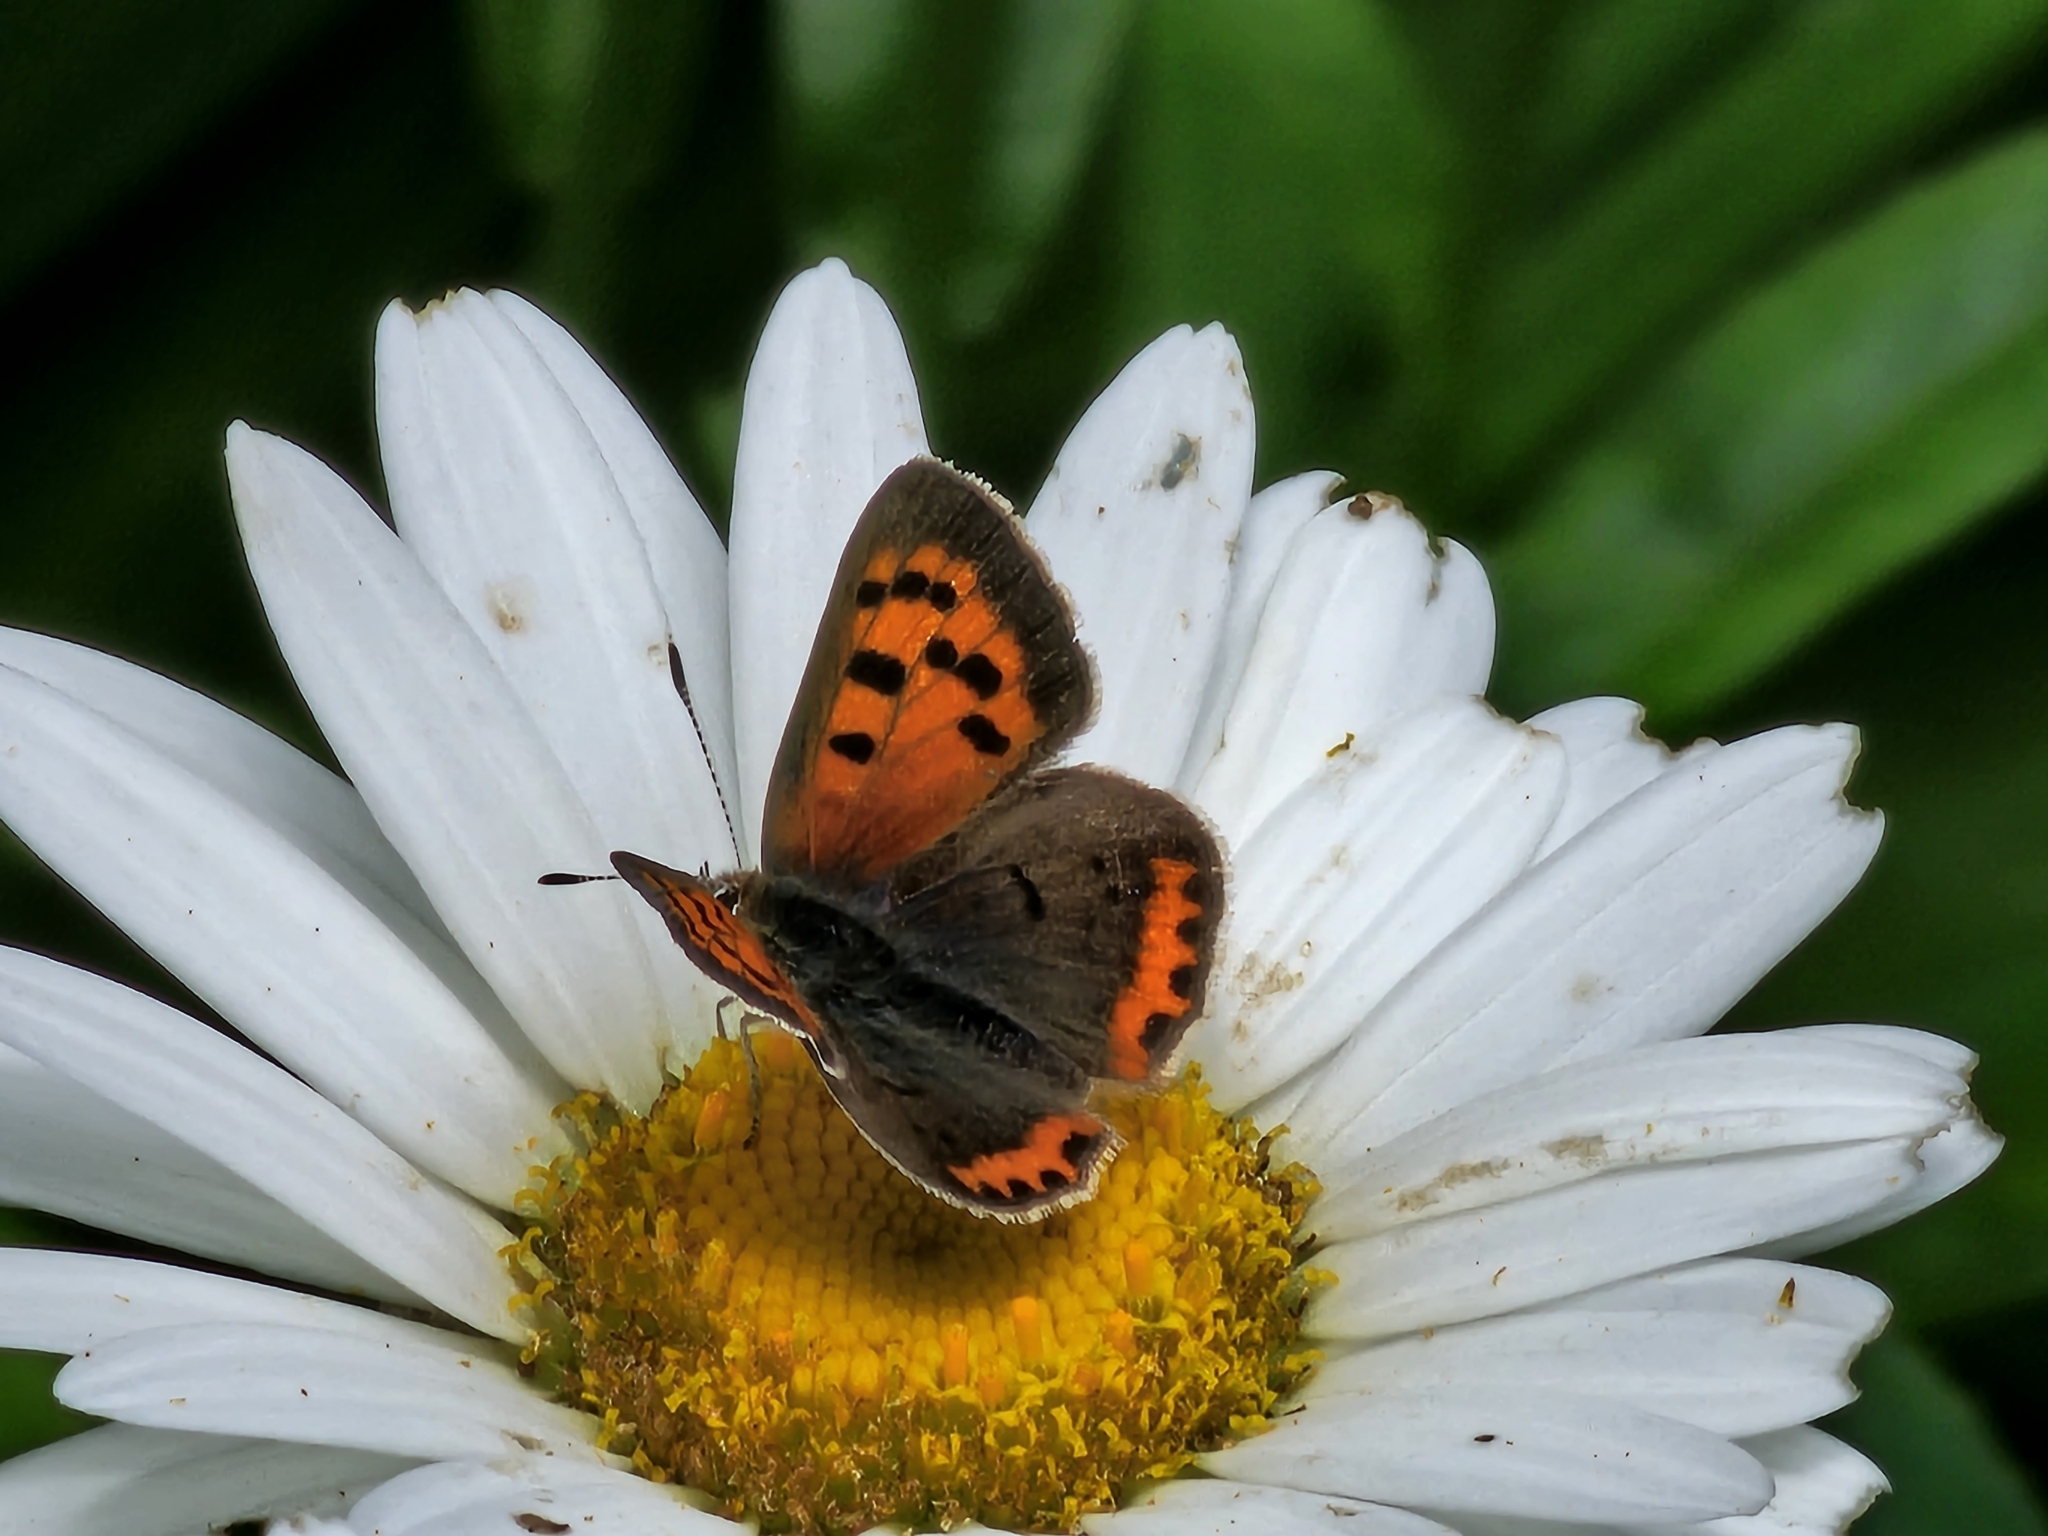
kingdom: Animalia
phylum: Arthropoda
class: Insecta
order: Lepidoptera
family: Lycaenidae
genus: Lycaena
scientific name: Lycaena hypophlaeas
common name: American copper
